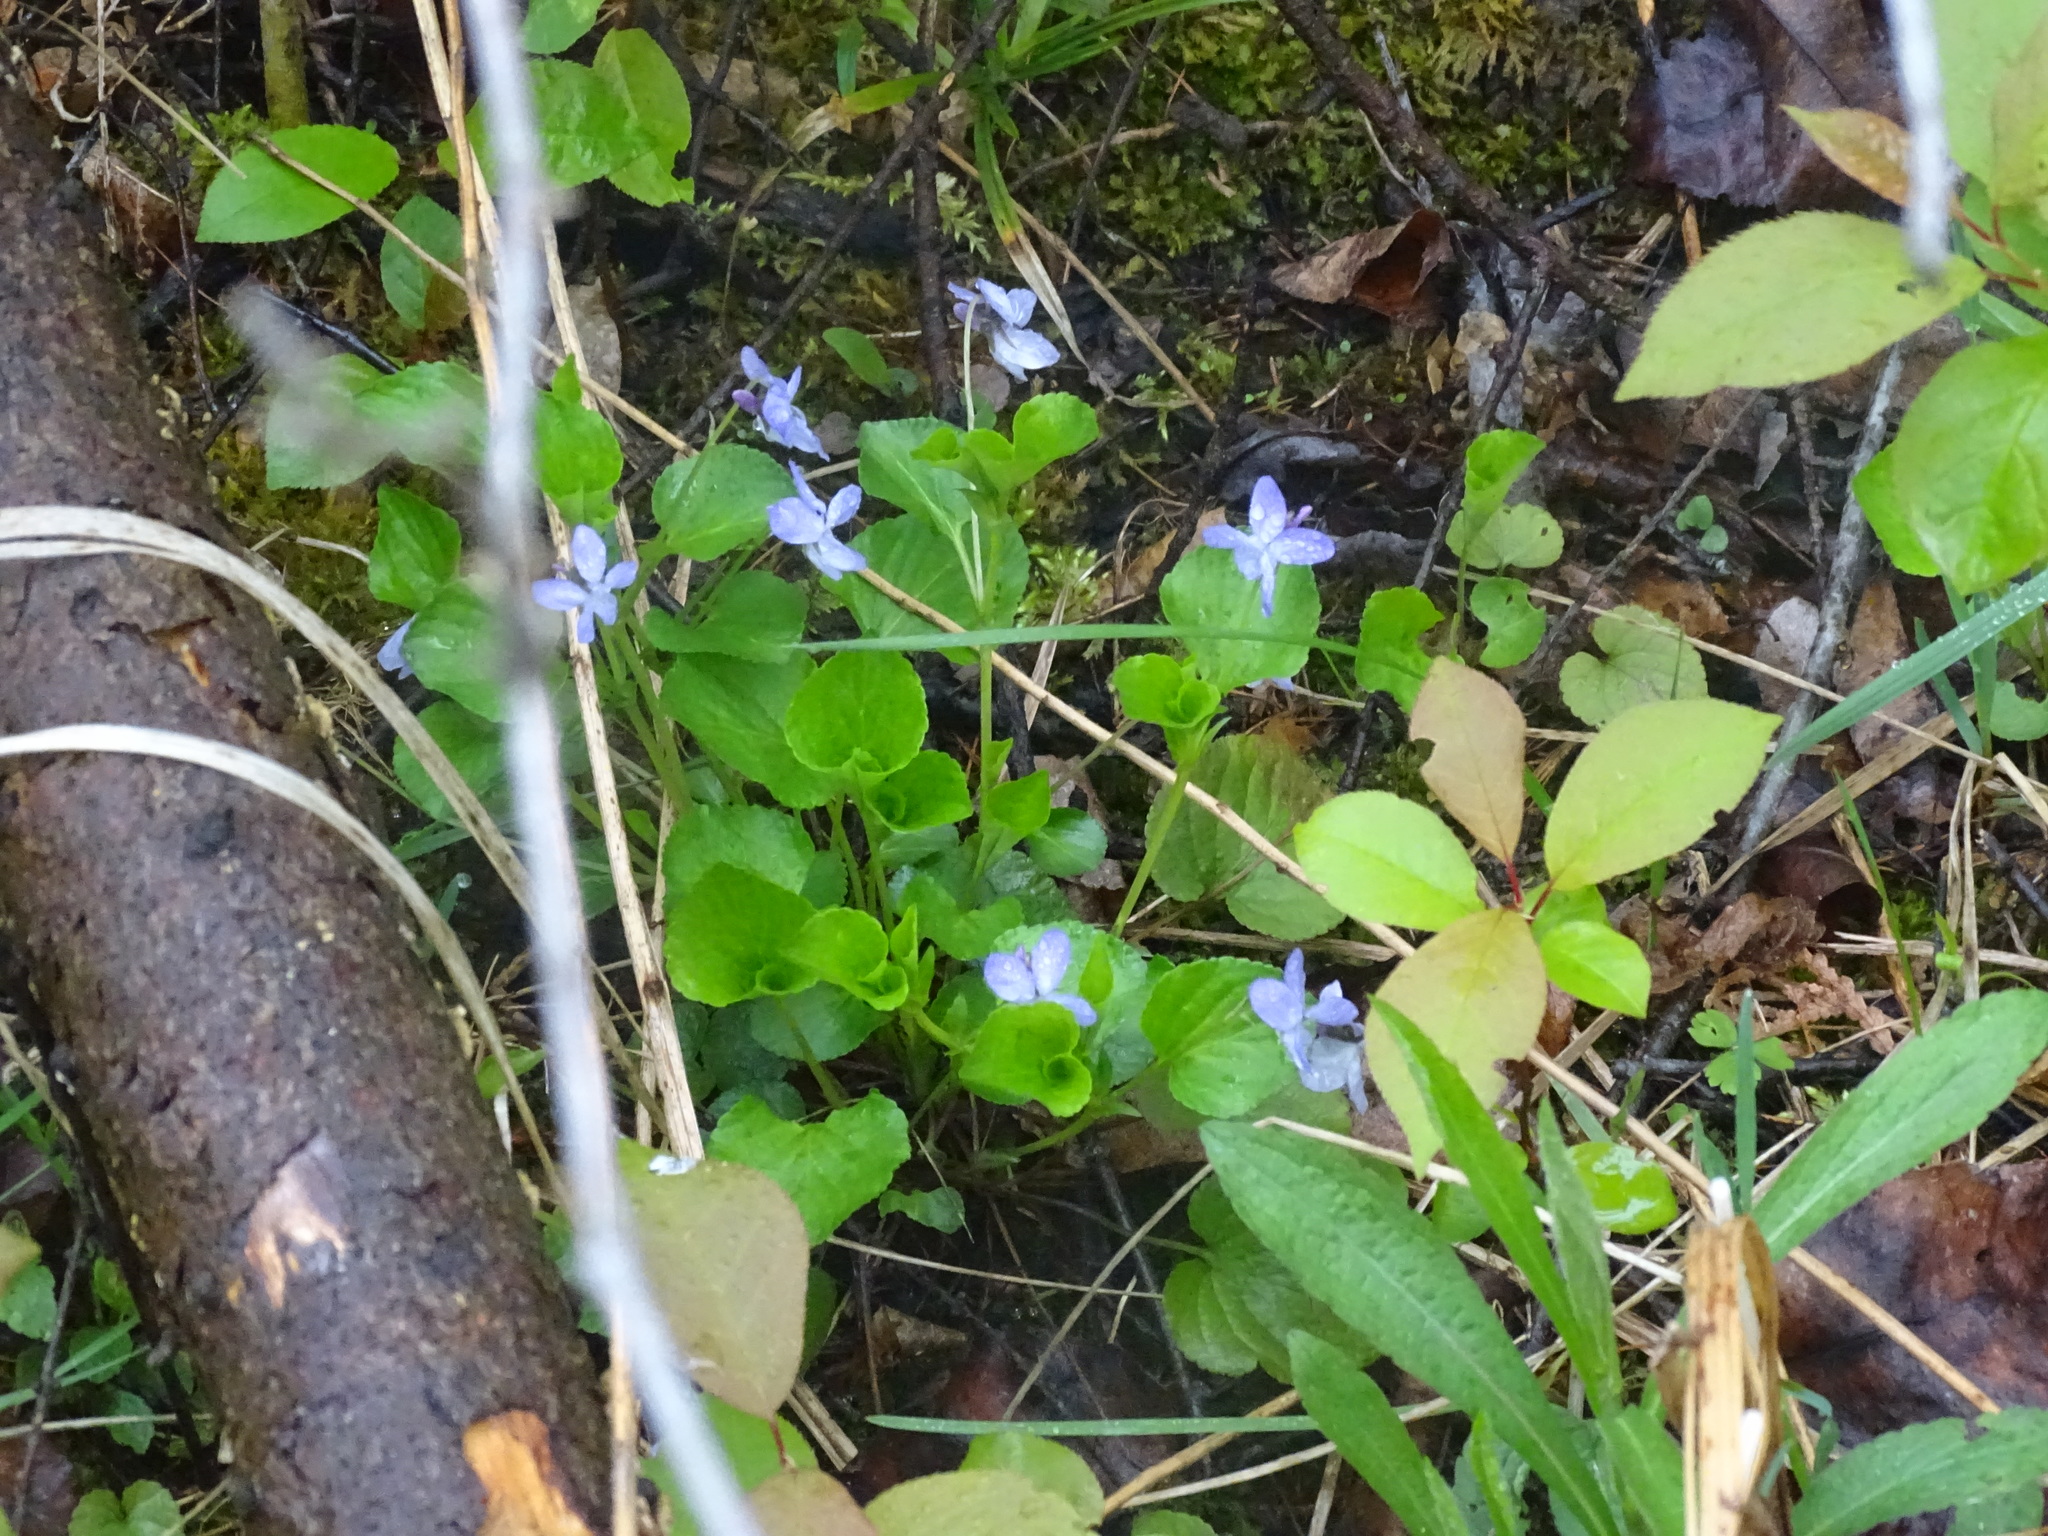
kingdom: Plantae
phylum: Tracheophyta
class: Magnoliopsida
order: Malpighiales
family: Violaceae
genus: Viola
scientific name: Viola labradorica
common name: Labrador violet
